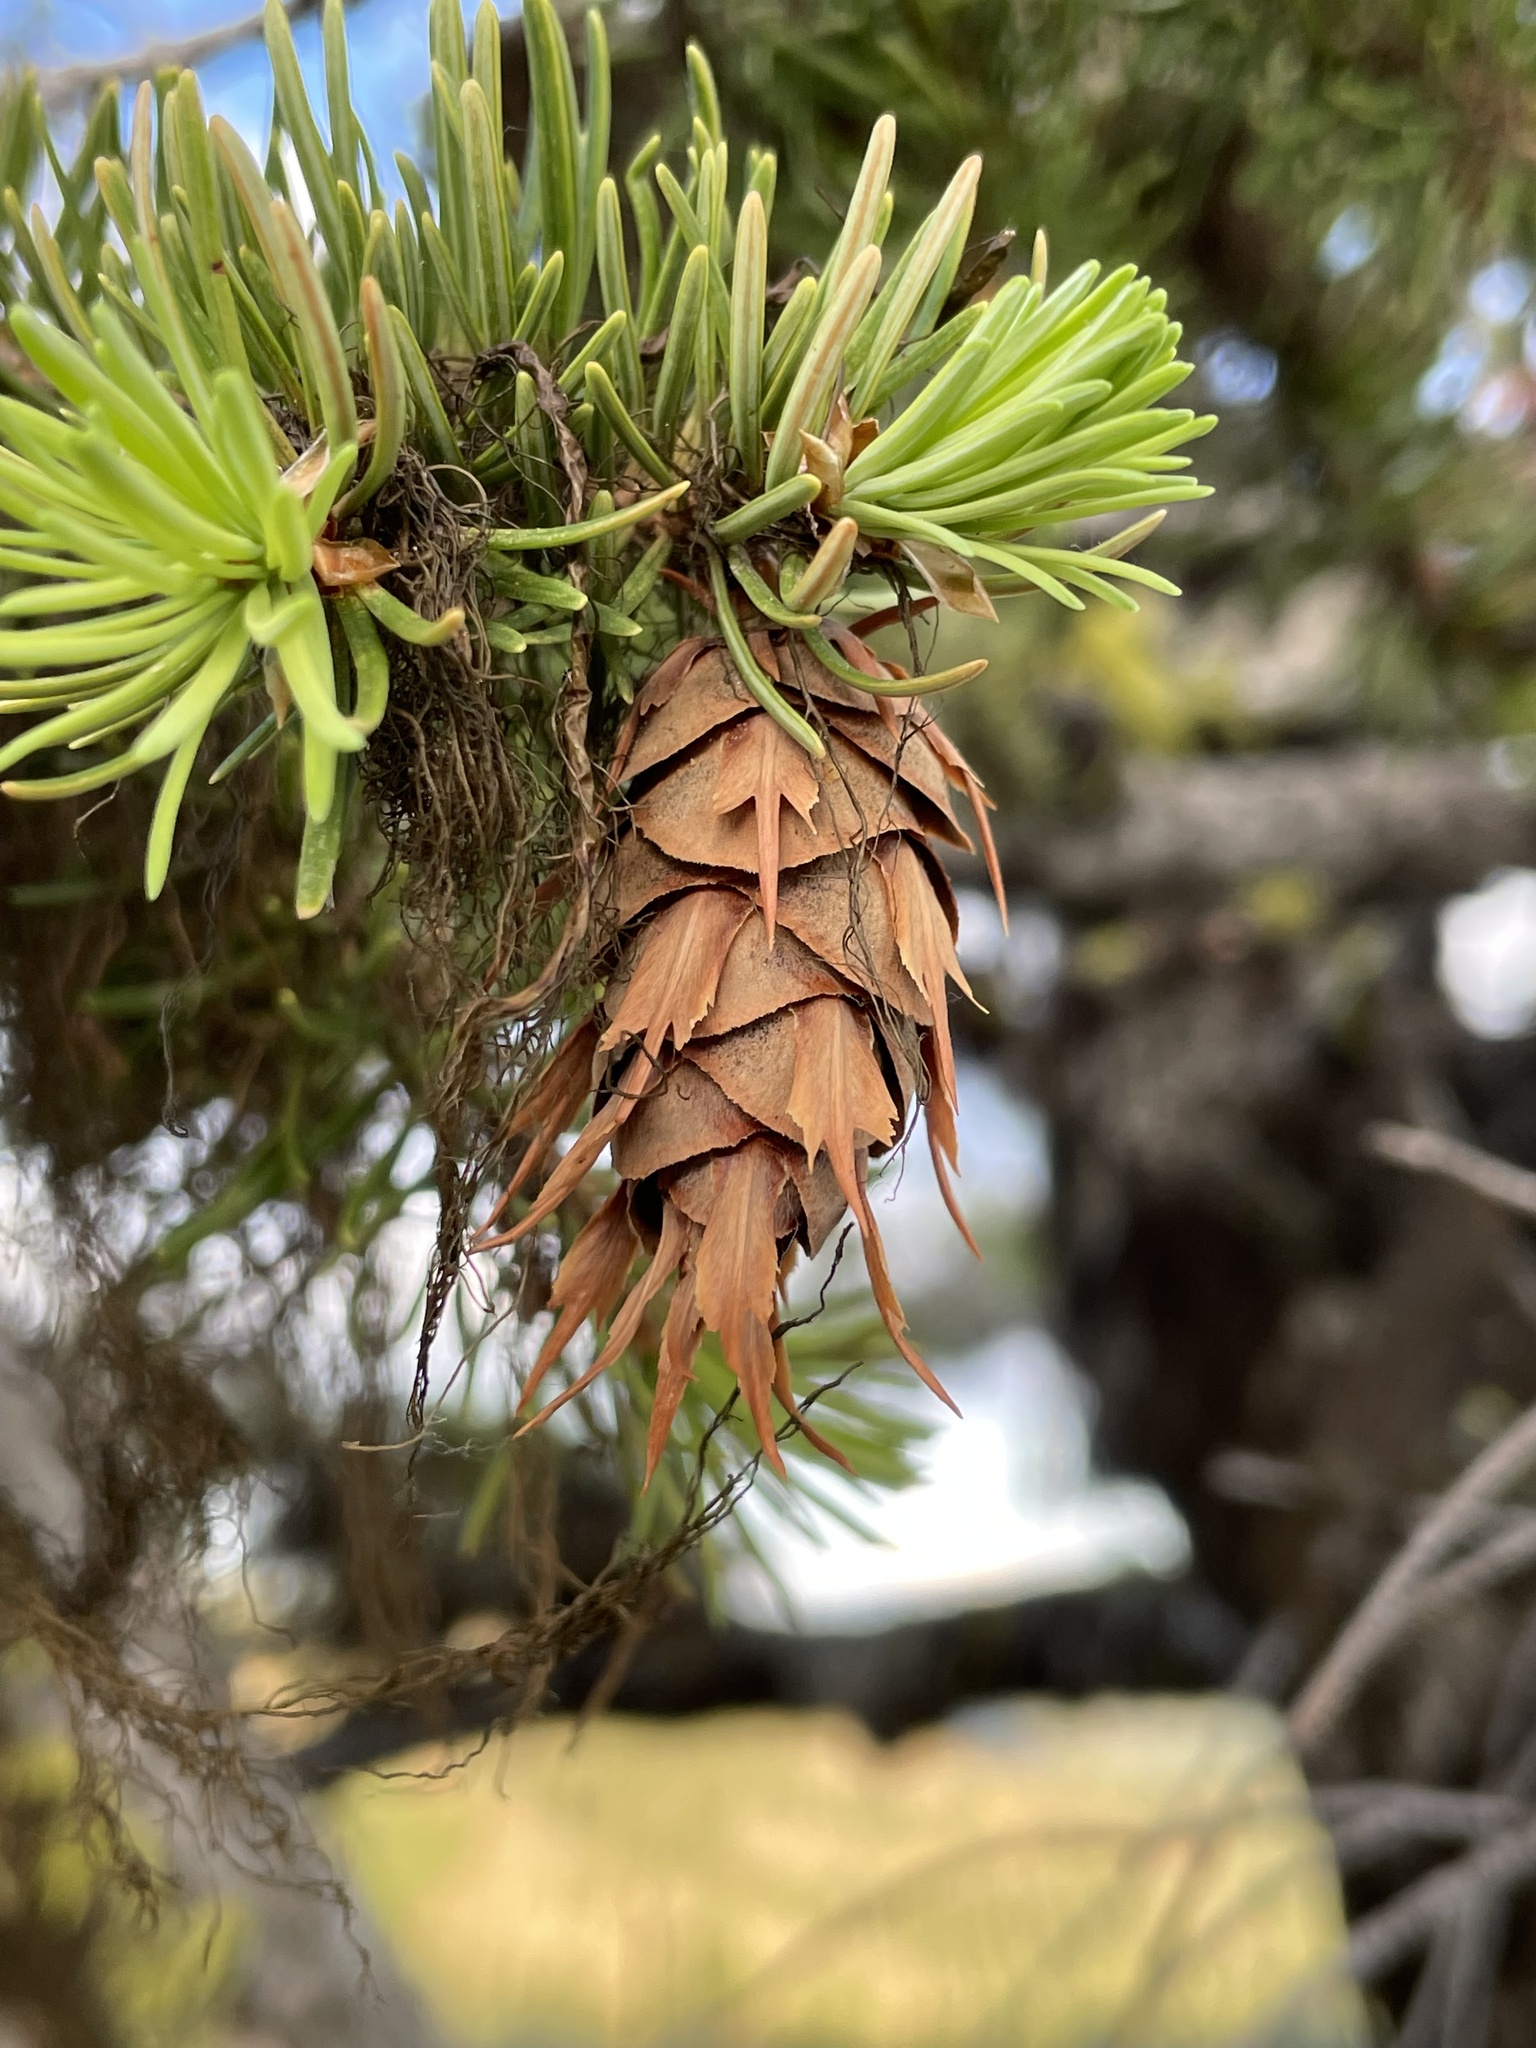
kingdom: Plantae
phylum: Tracheophyta
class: Pinopsida
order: Pinales
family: Pinaceae
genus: Pseudotsuga
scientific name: Pseudotsuga menziesii
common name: Douglas fir
